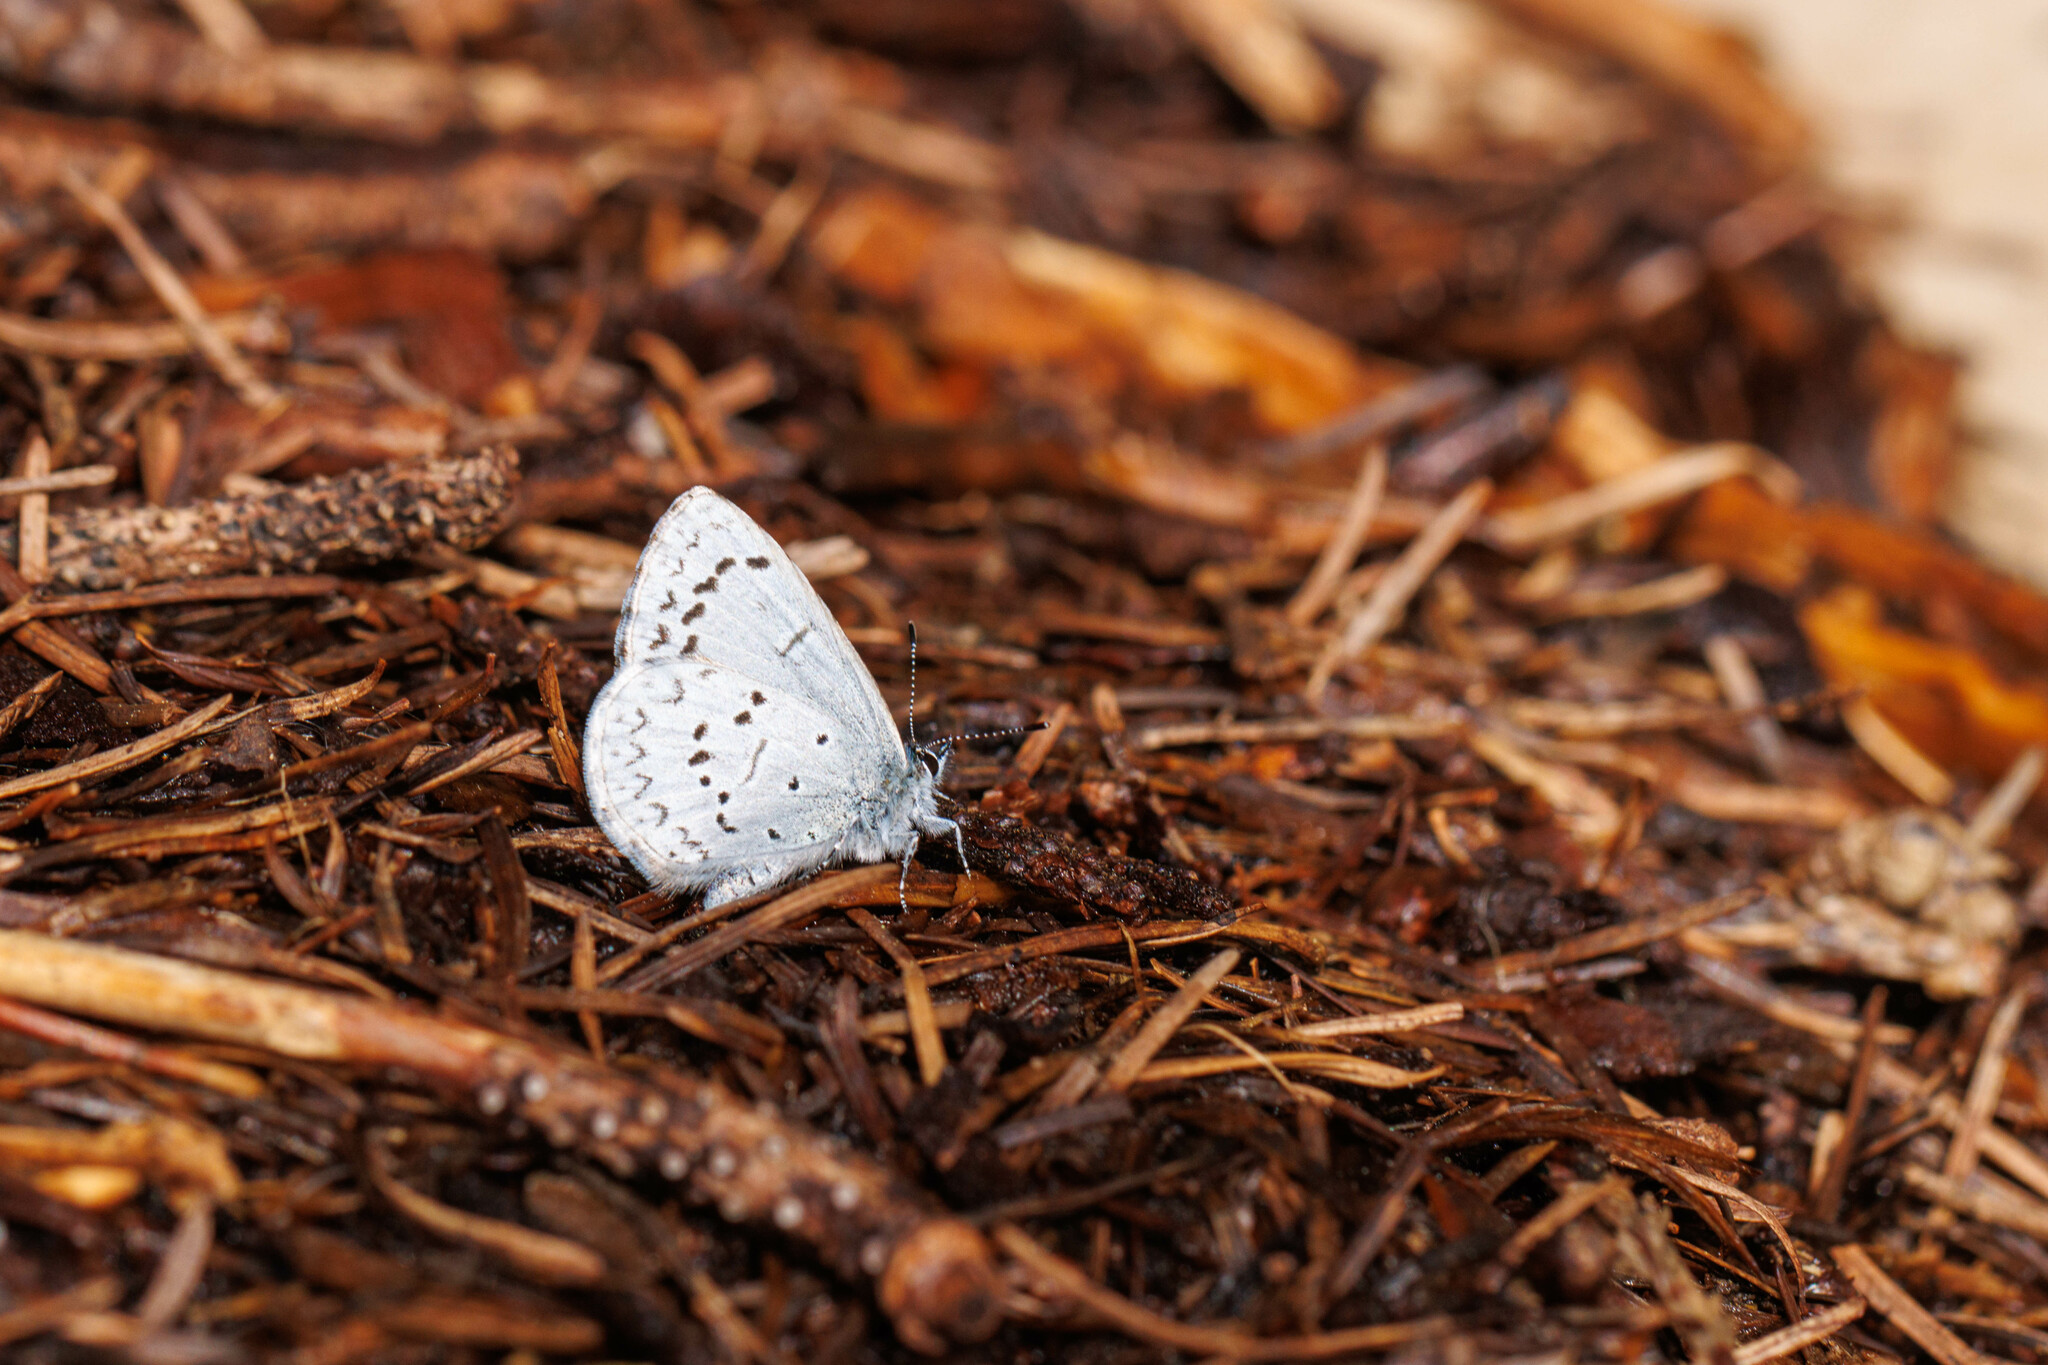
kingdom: Animalia
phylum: Arthropoda
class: Insecta
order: Lepidoptera
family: Lycaenidae
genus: Celastrina
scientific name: Celastrina ladon
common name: Spring azure
